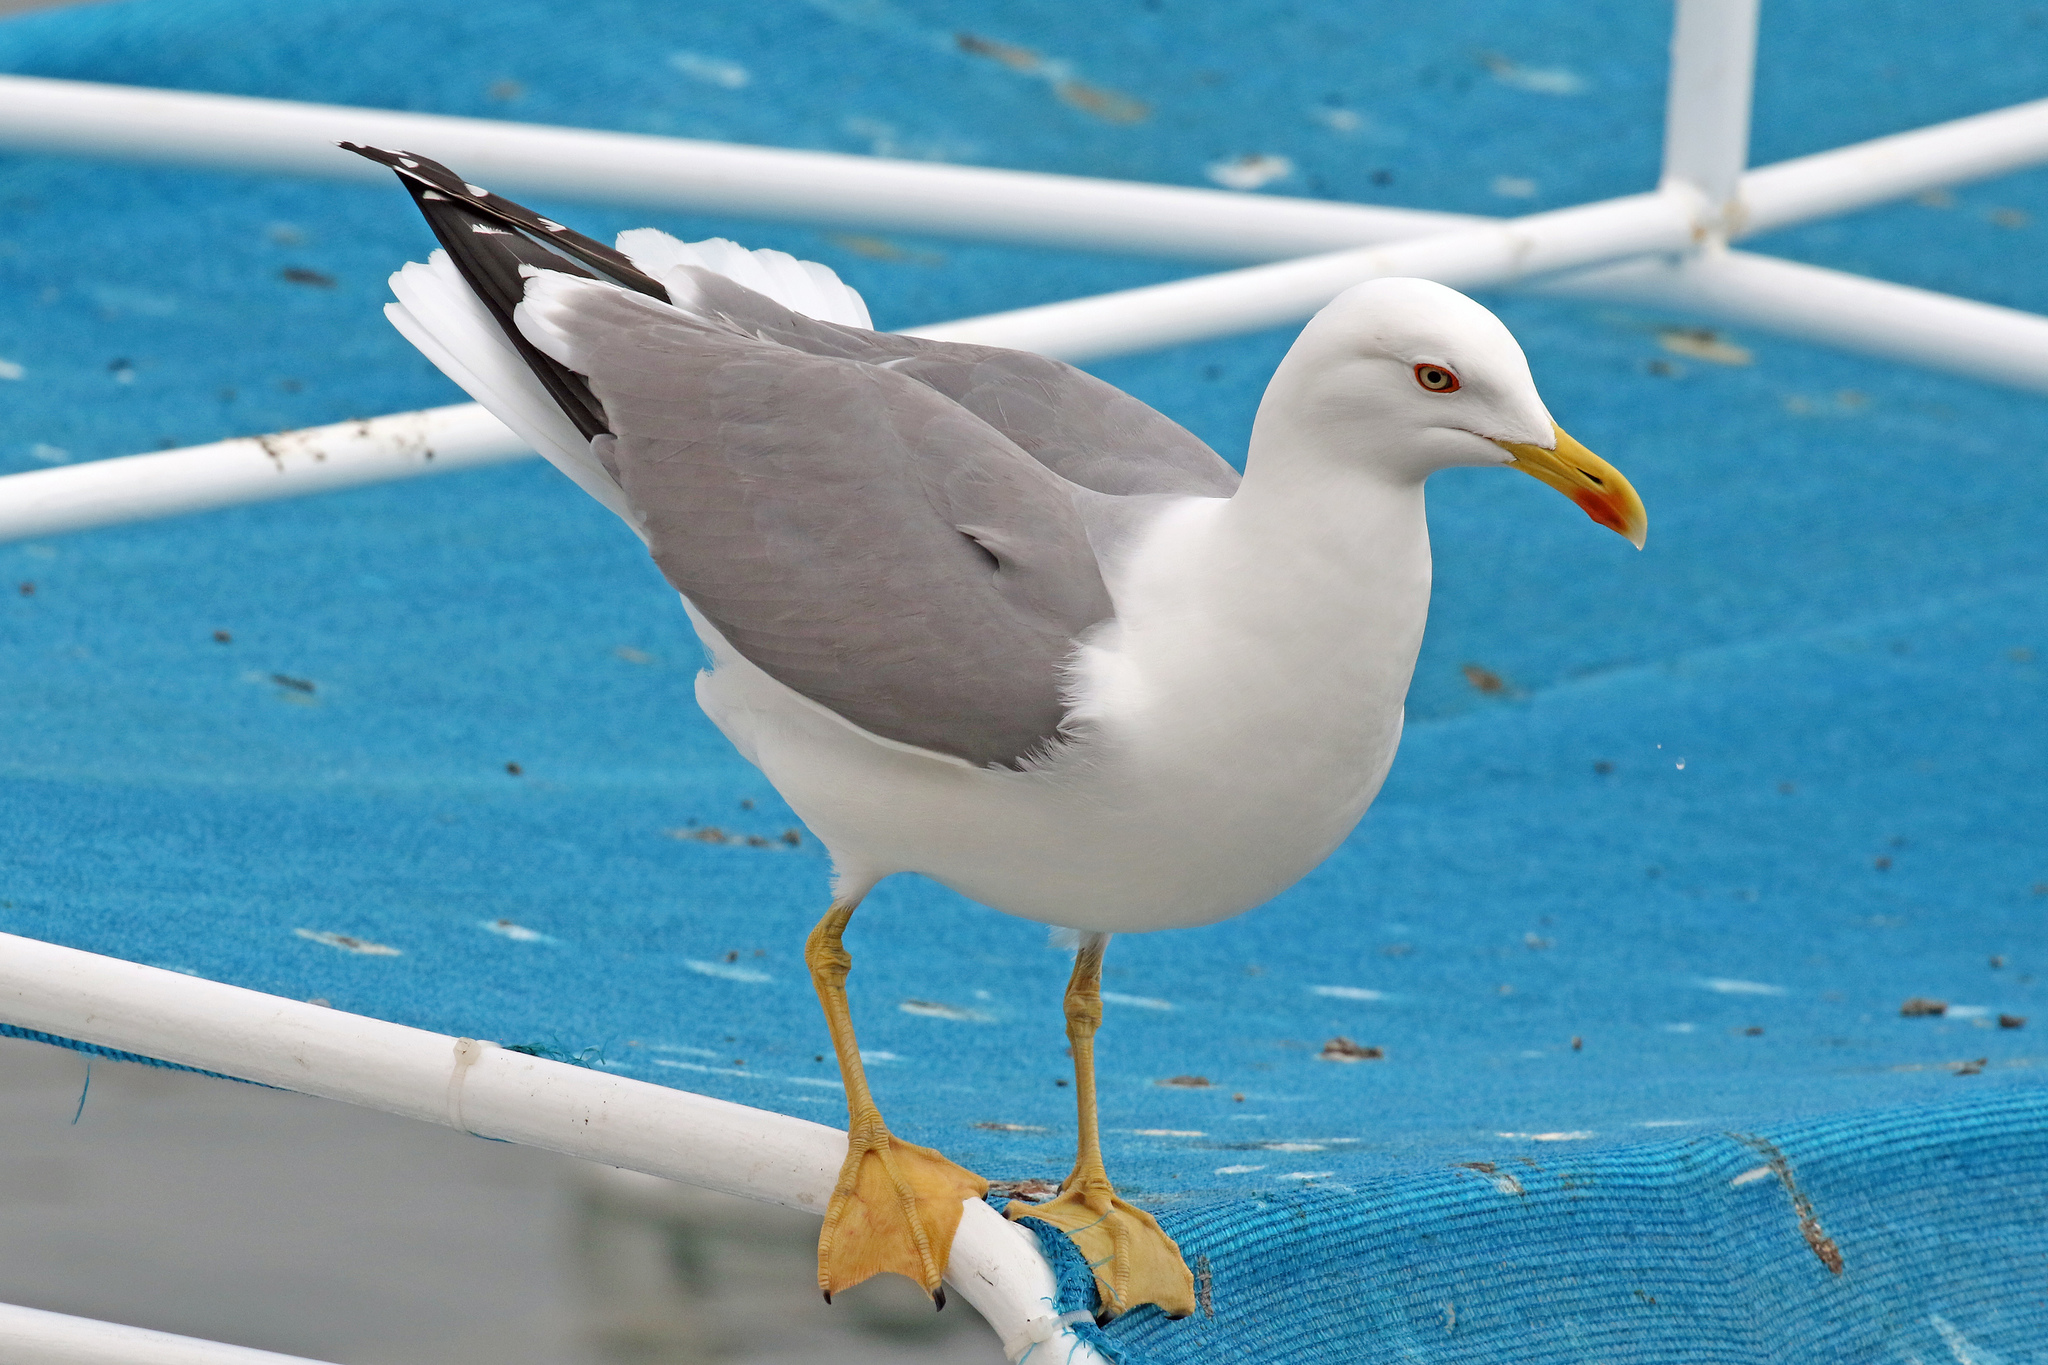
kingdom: Animalia
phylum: Chordata
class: Aves
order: Charadriiformes
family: Laridae
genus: Larus
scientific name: Larus michahellis
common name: Yellow-legged gull
